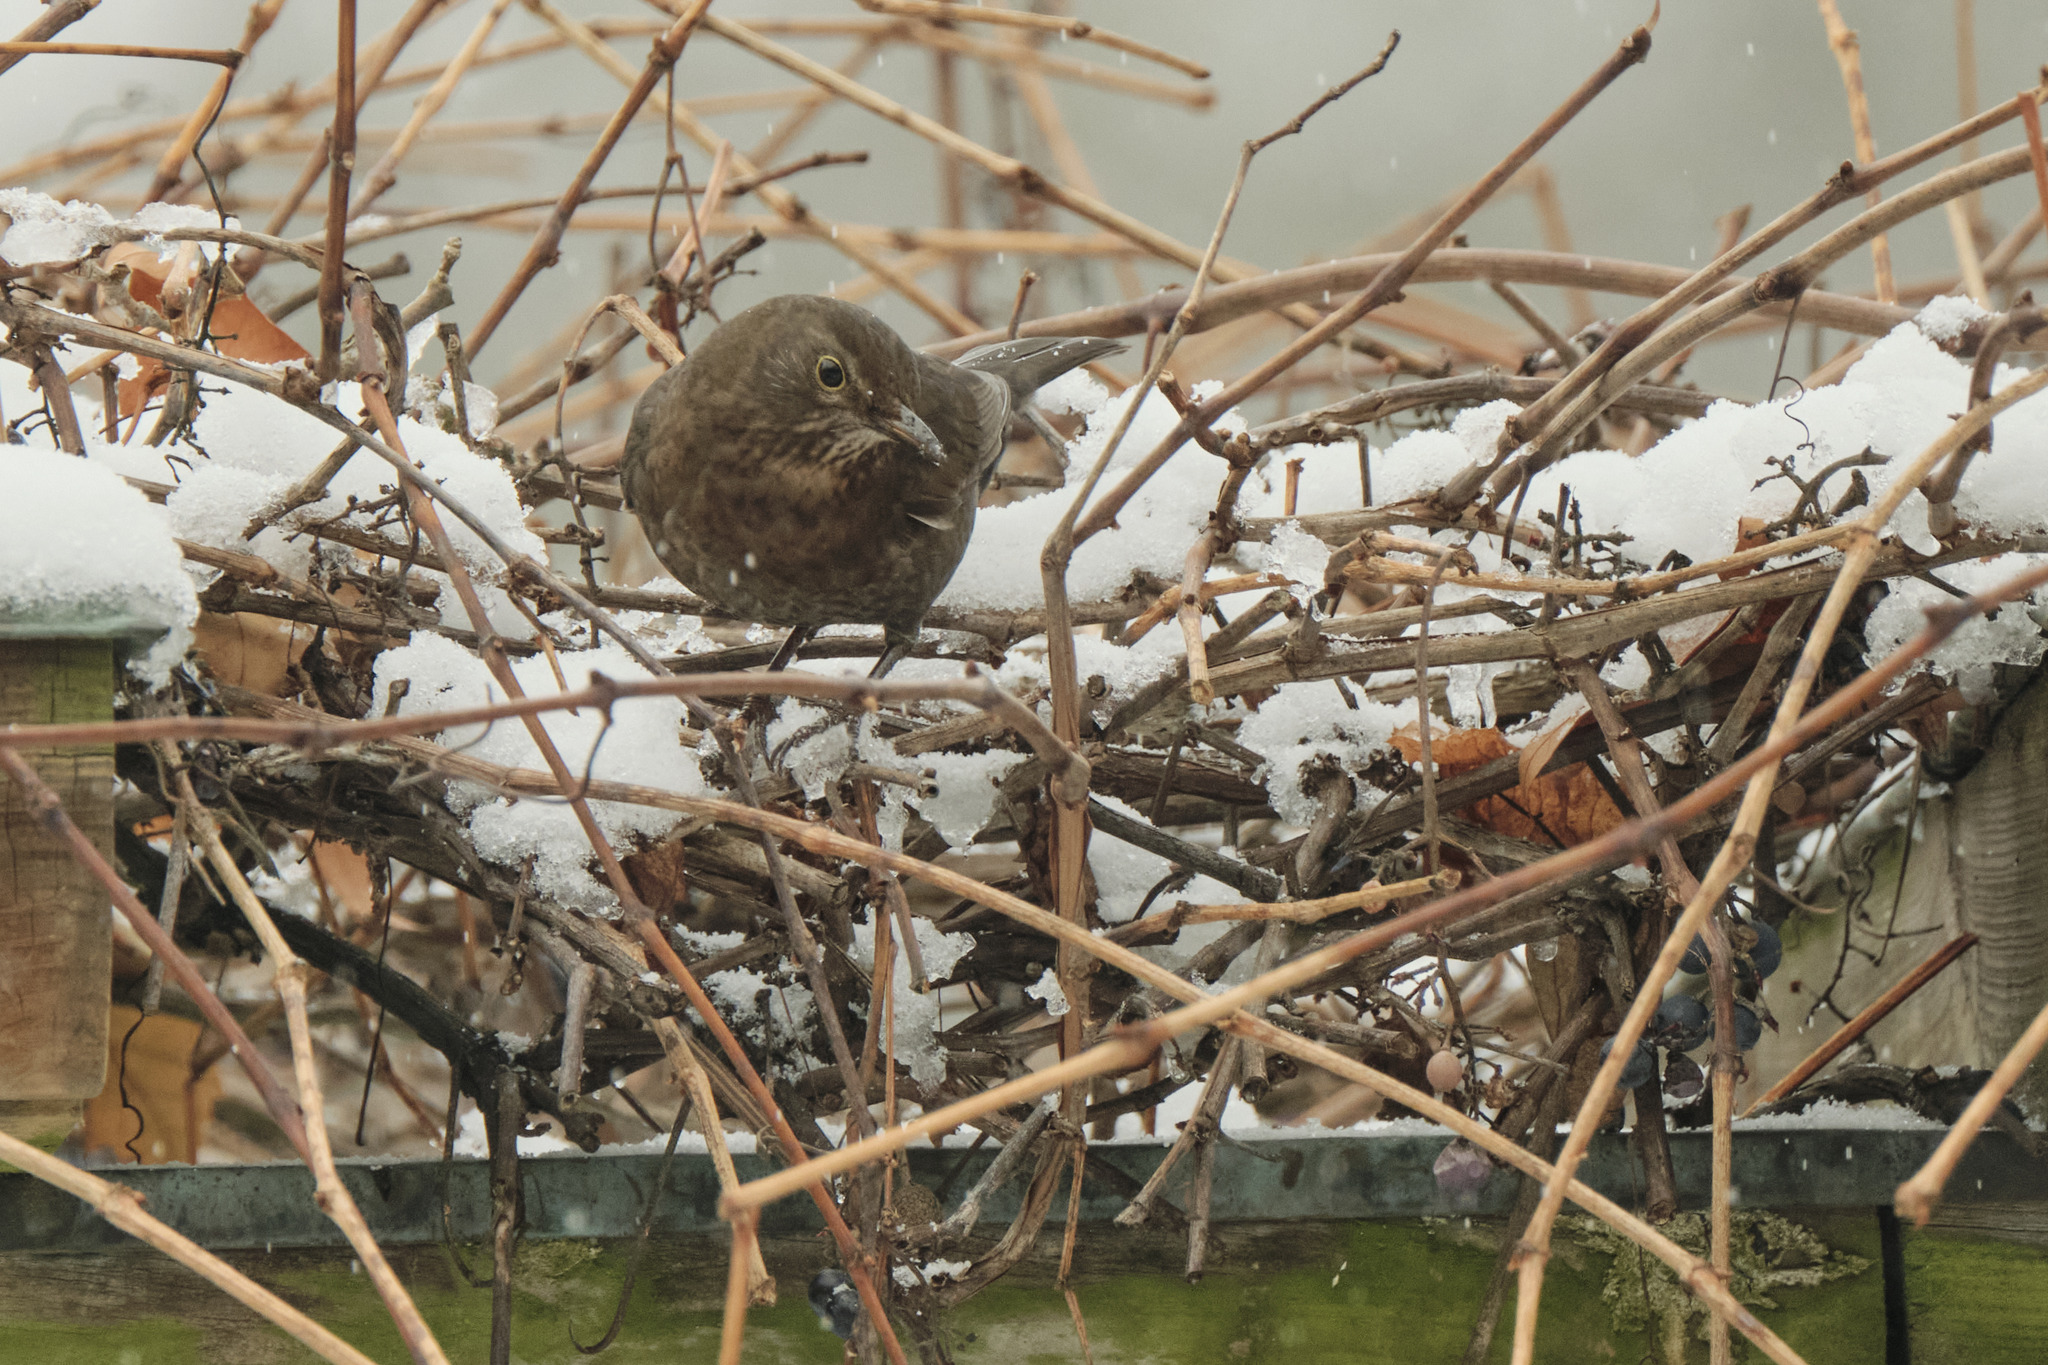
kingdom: Animalia
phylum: Chordata
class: Aves
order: Passeriformes
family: Turdidae
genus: Turdus
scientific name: Turdus merula
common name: Common blackbird
